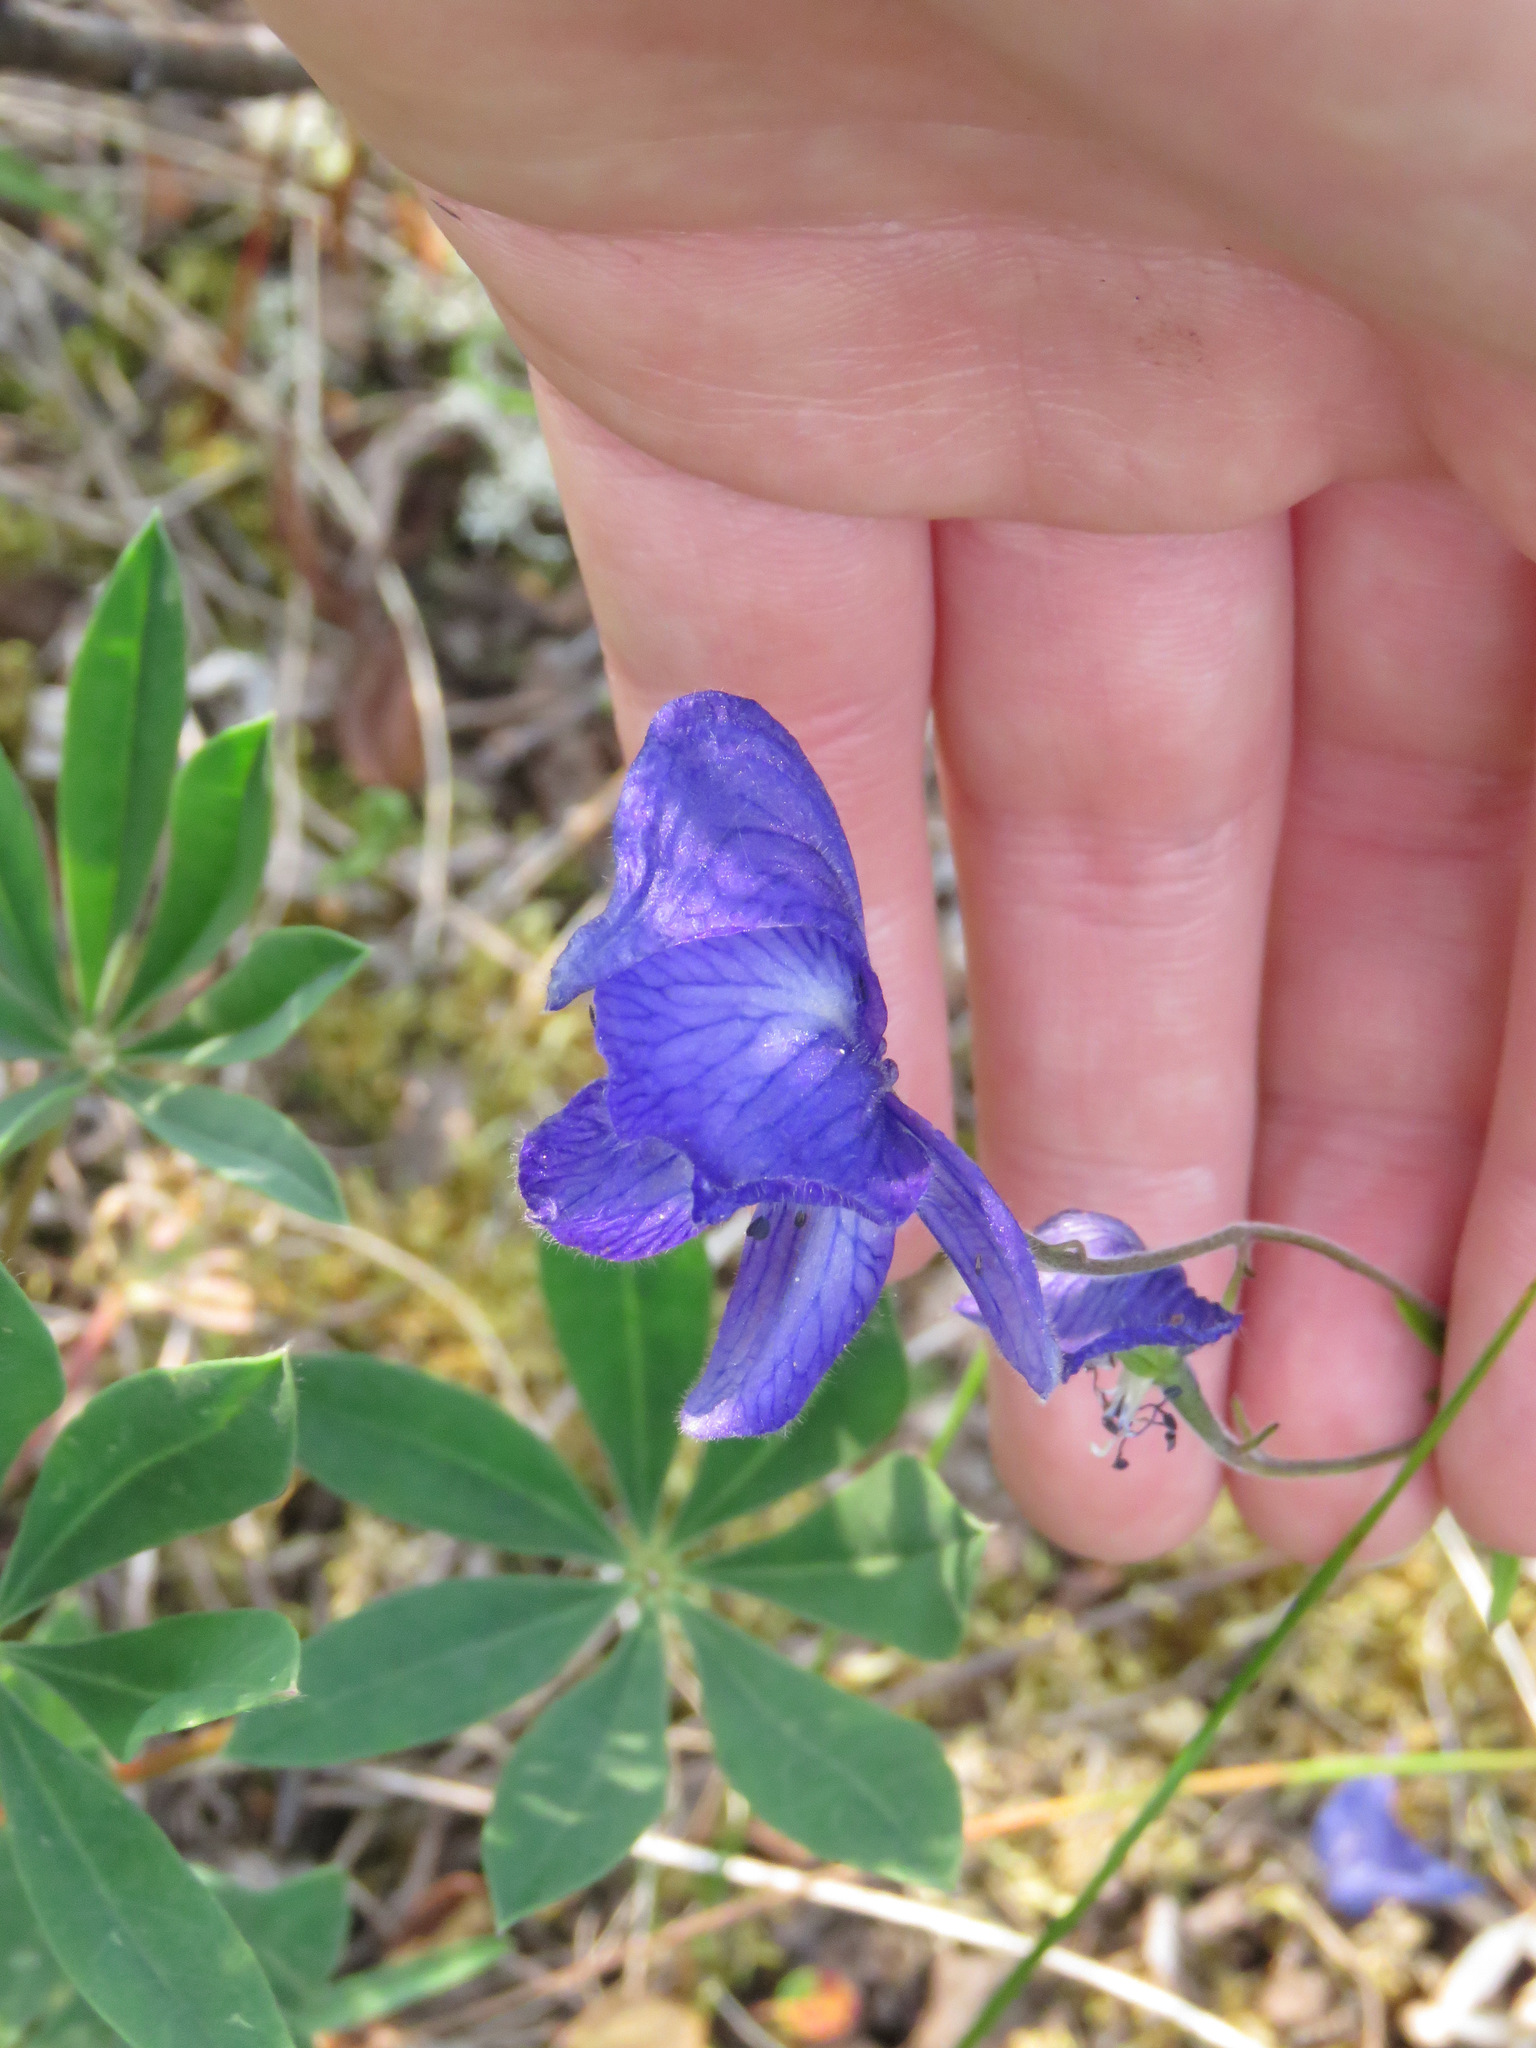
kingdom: Plantae
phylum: Tracheophyta
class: Magnoliopsida
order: Ranunculales
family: Ranunculaceae
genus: Aconitum
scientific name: Aconitum delphiniifolium
